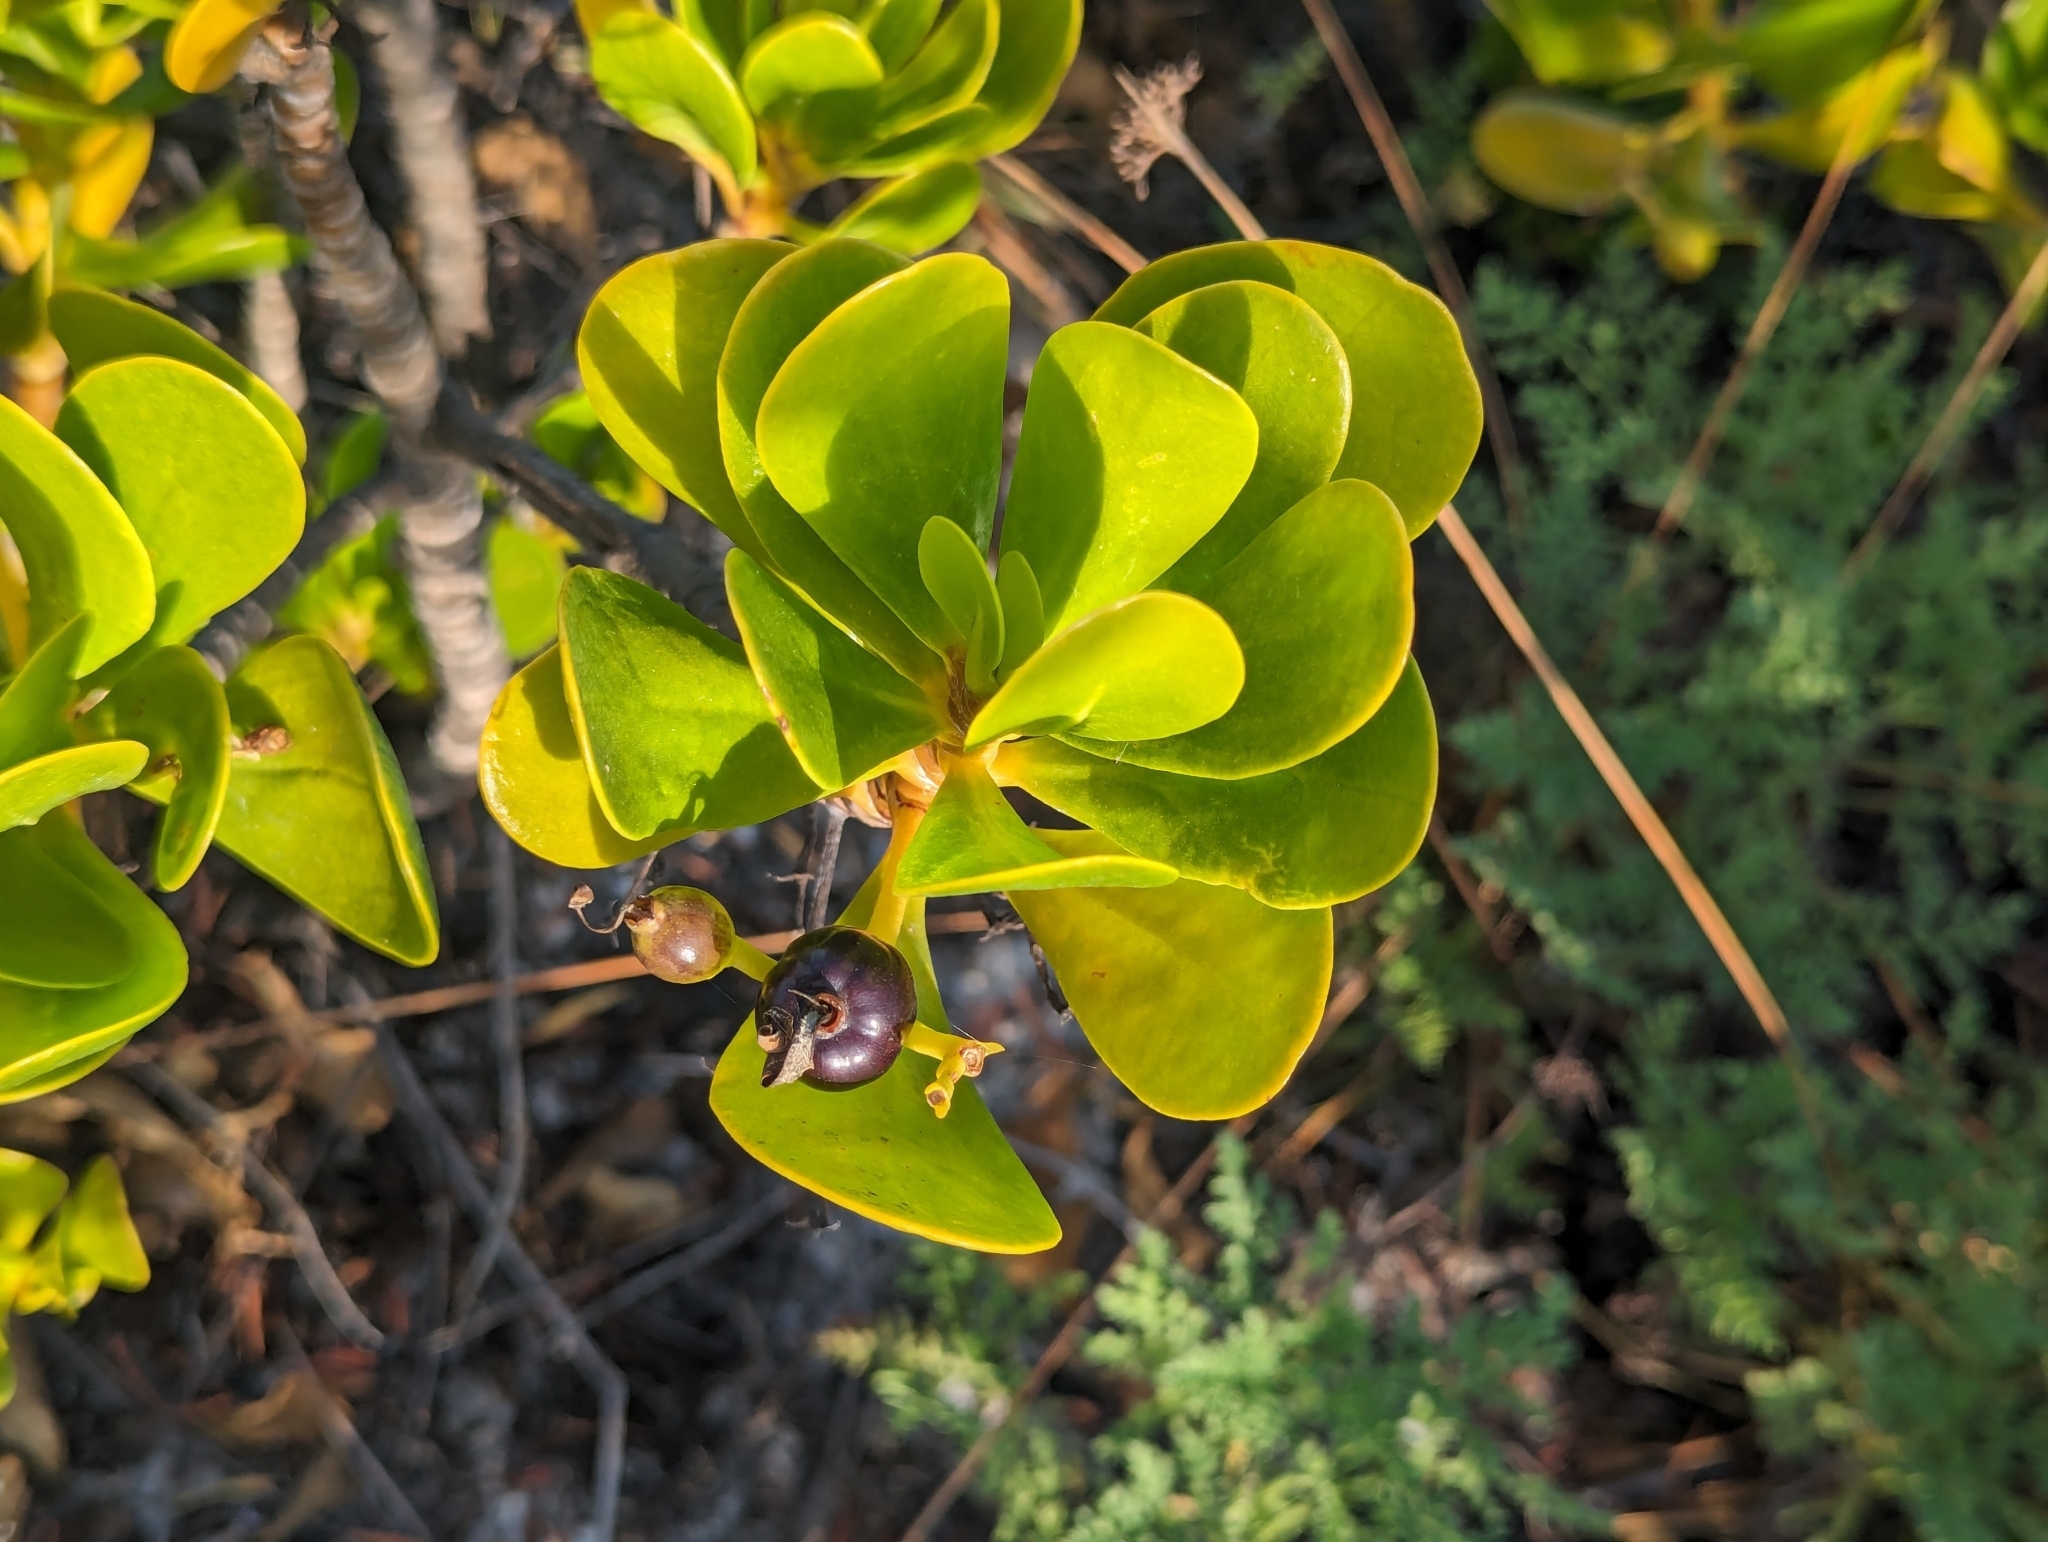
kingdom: Plantae
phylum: Tracheophyta
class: Magnoliopsida
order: Asterales
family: Goodeniaceae
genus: Scaevola
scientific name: Scaevola plumieri
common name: Gull feed
